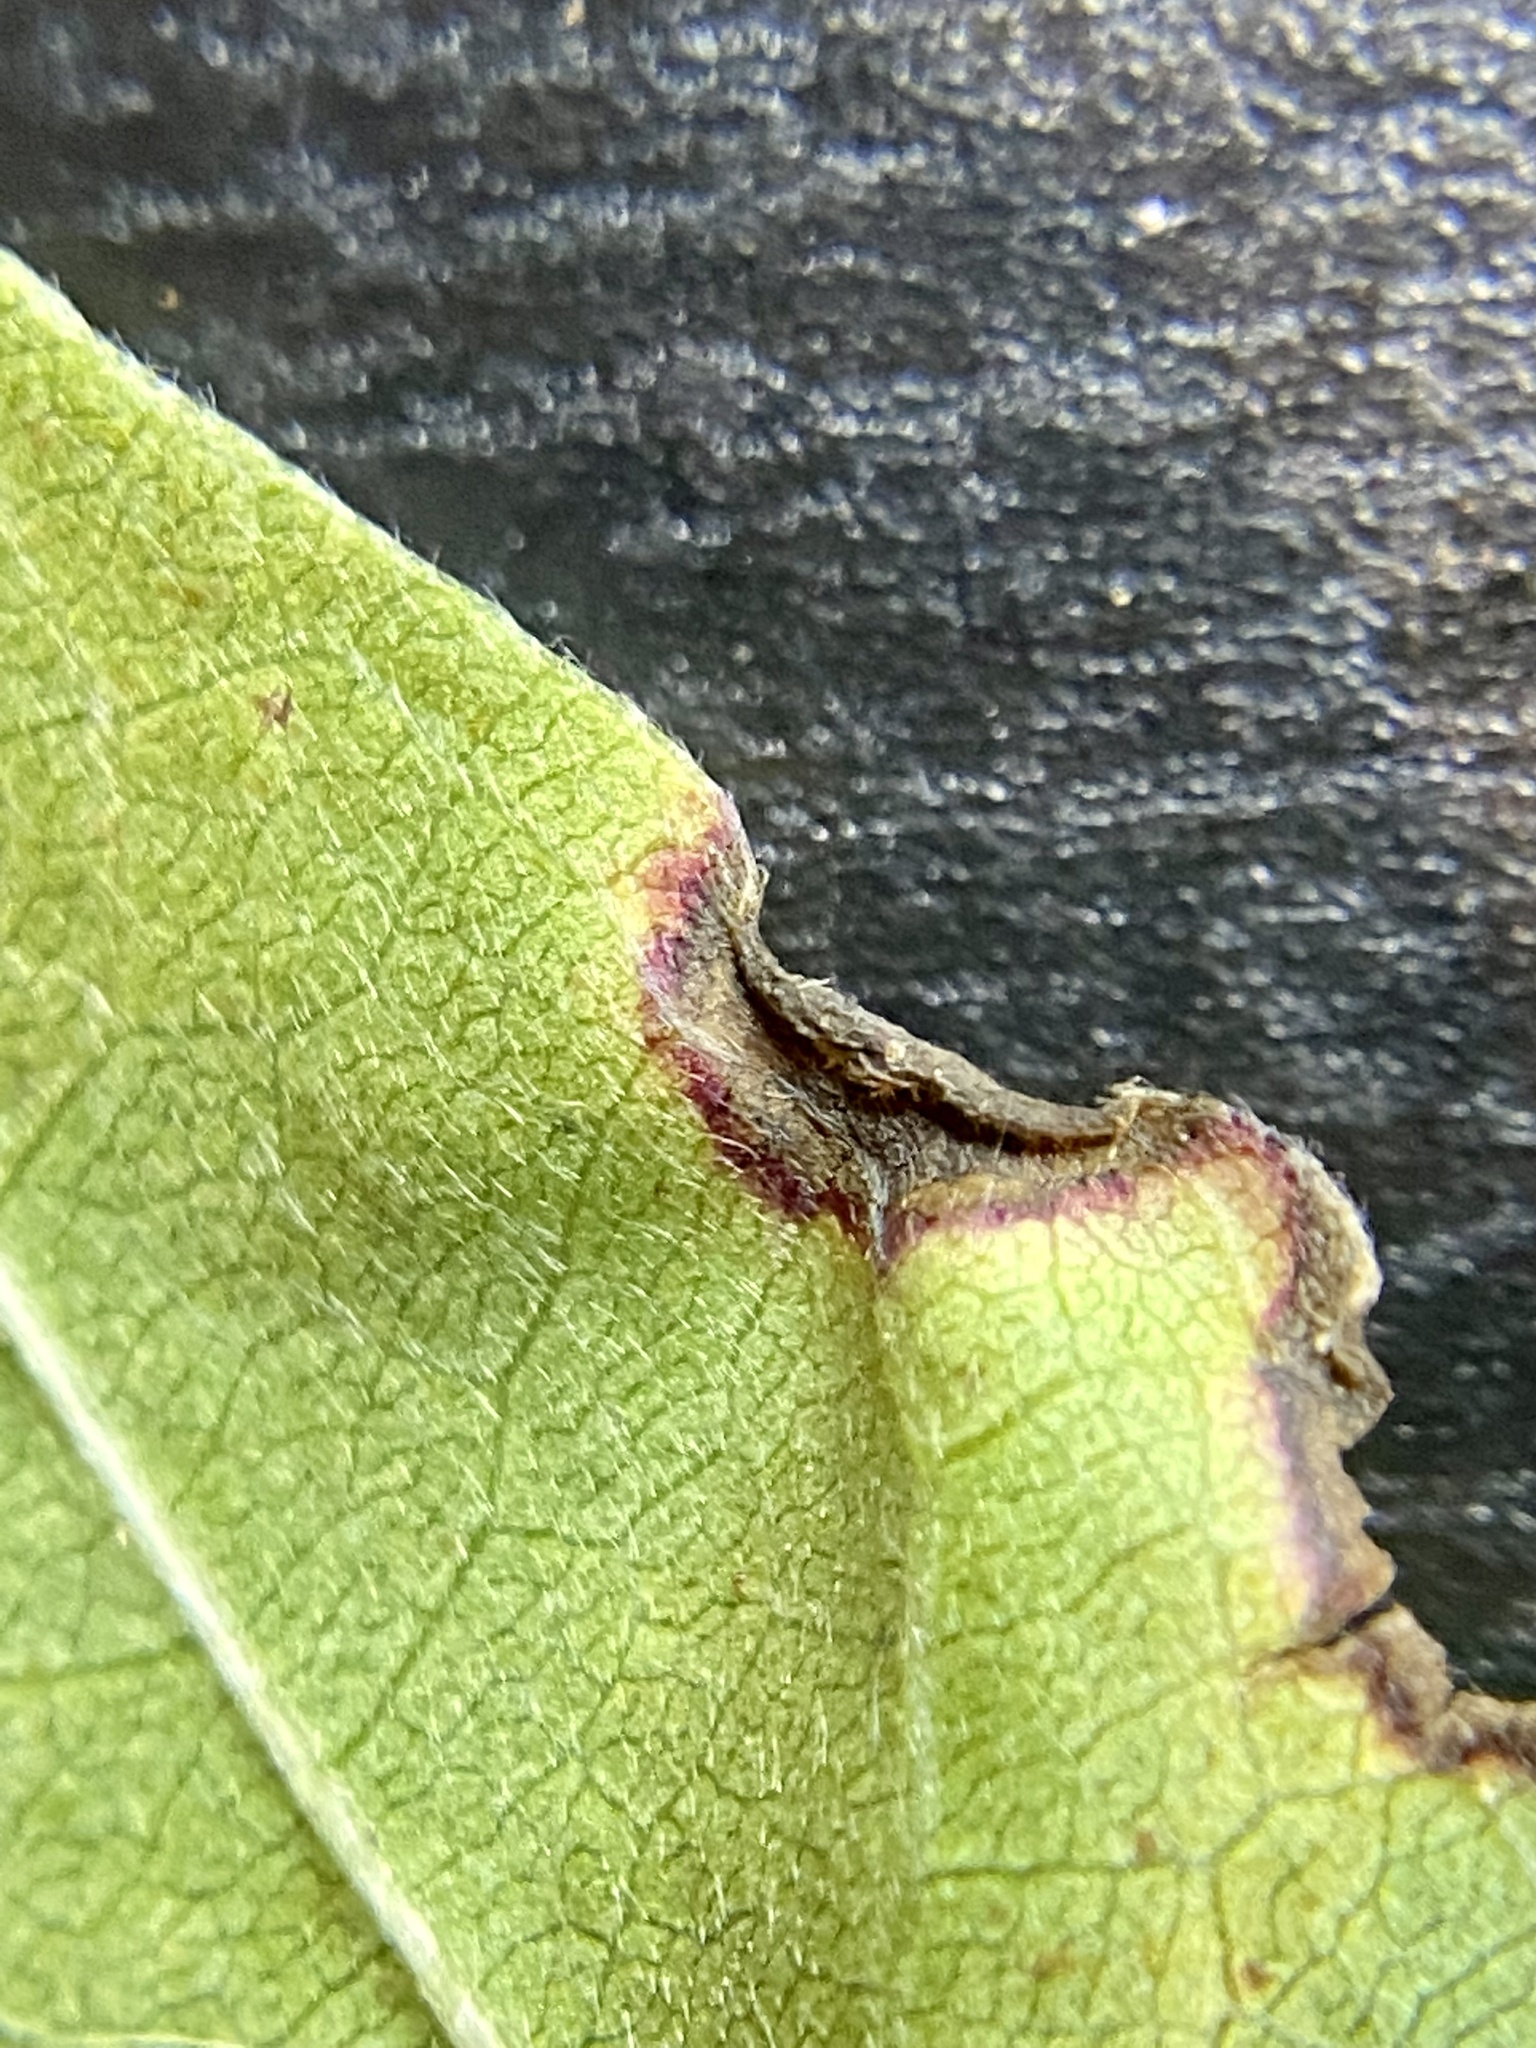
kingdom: Animalia
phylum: Arthropoda
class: Insecta
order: Hemiptera
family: Phylloxeridae
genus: Phylloxerina
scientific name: Phylloxerina nyssae
